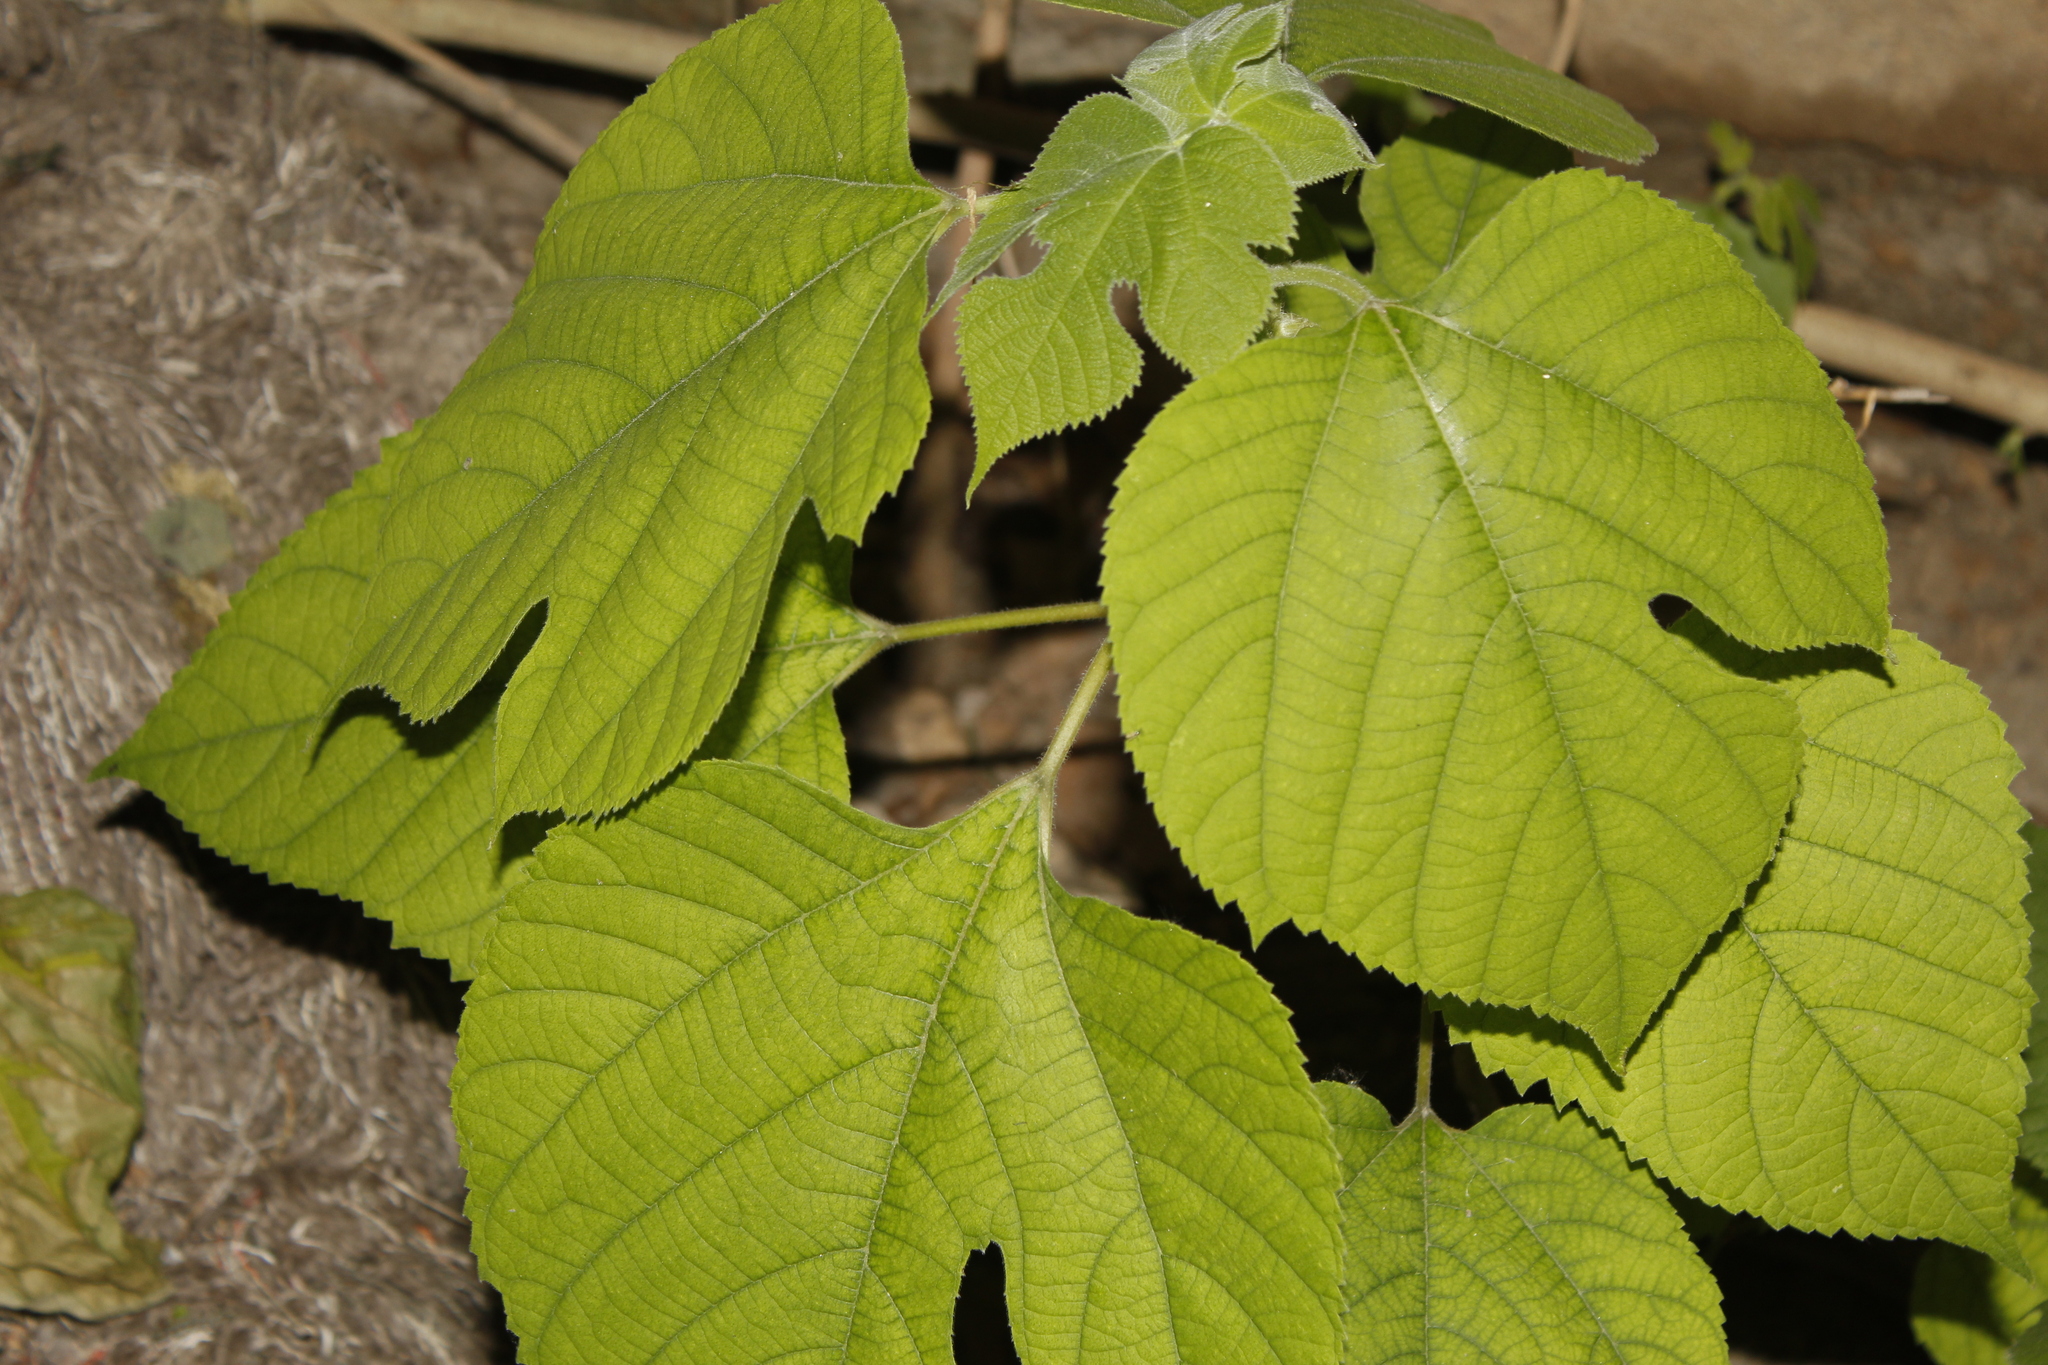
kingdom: Plantae
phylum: Tracheophyta
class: Magnoliopsida
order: Rosales
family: Moraceae
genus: Broussonetia
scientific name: Broussonetia papyrifera
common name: Paper mulberry
